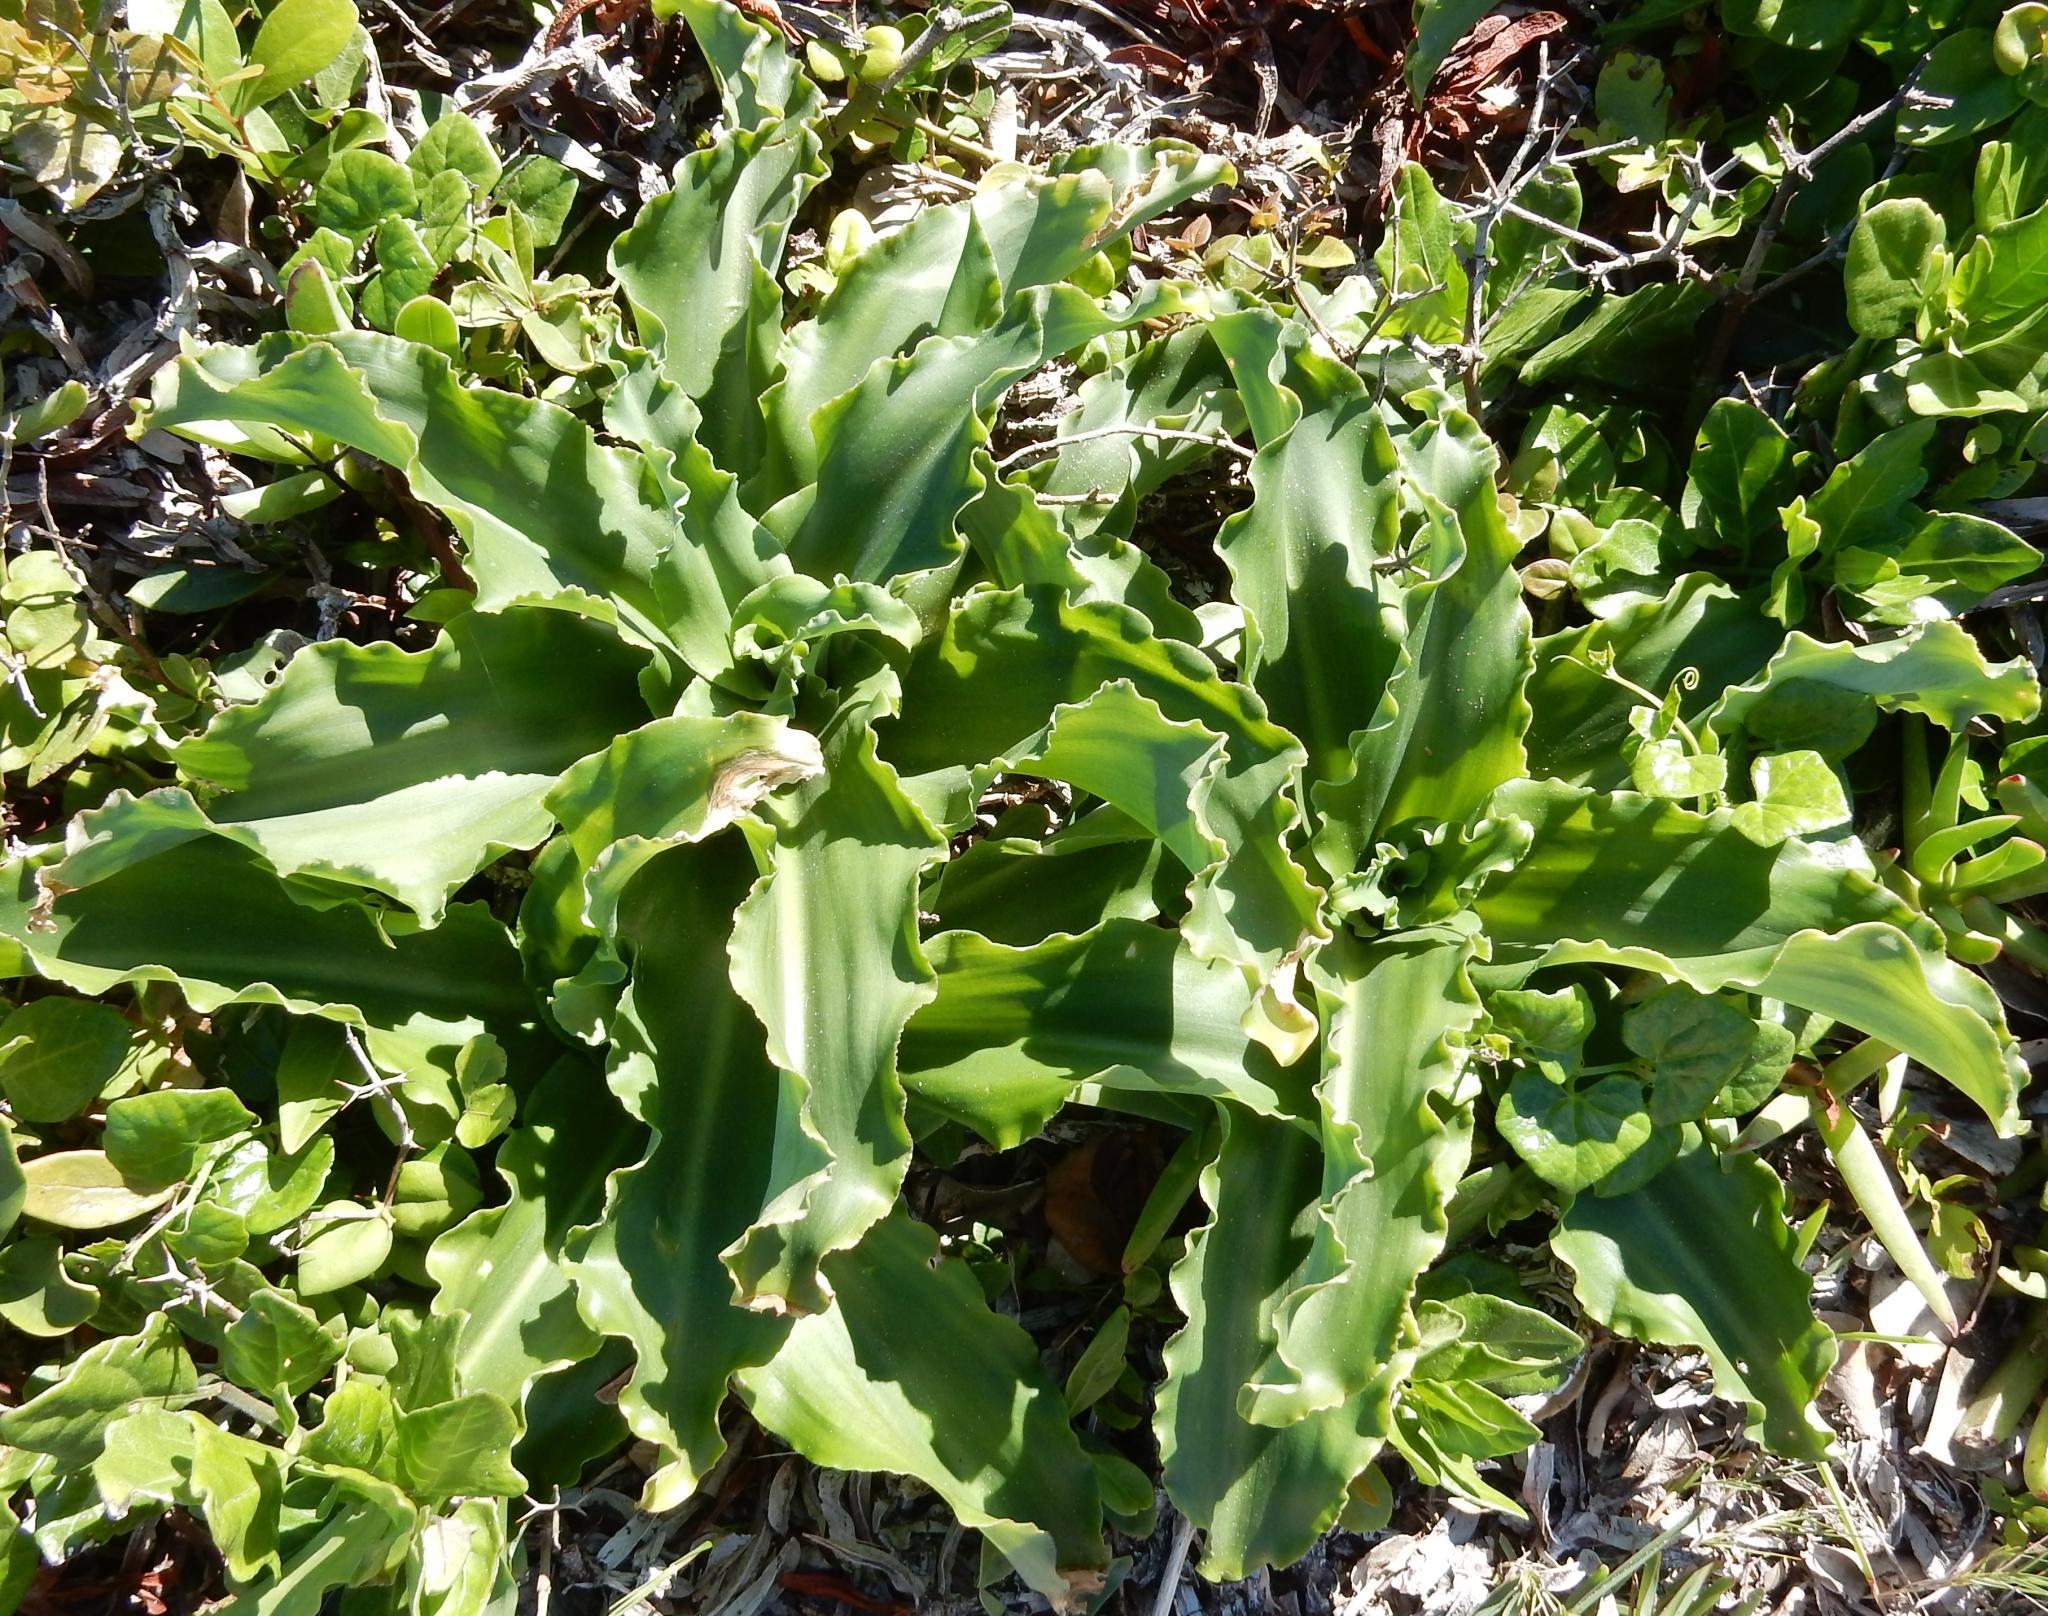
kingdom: Plantae
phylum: Tracheophyta
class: Liliopsida
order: Asparagales
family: Asparagaceae
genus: Veltheimia
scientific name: Veltheimia bracteata
